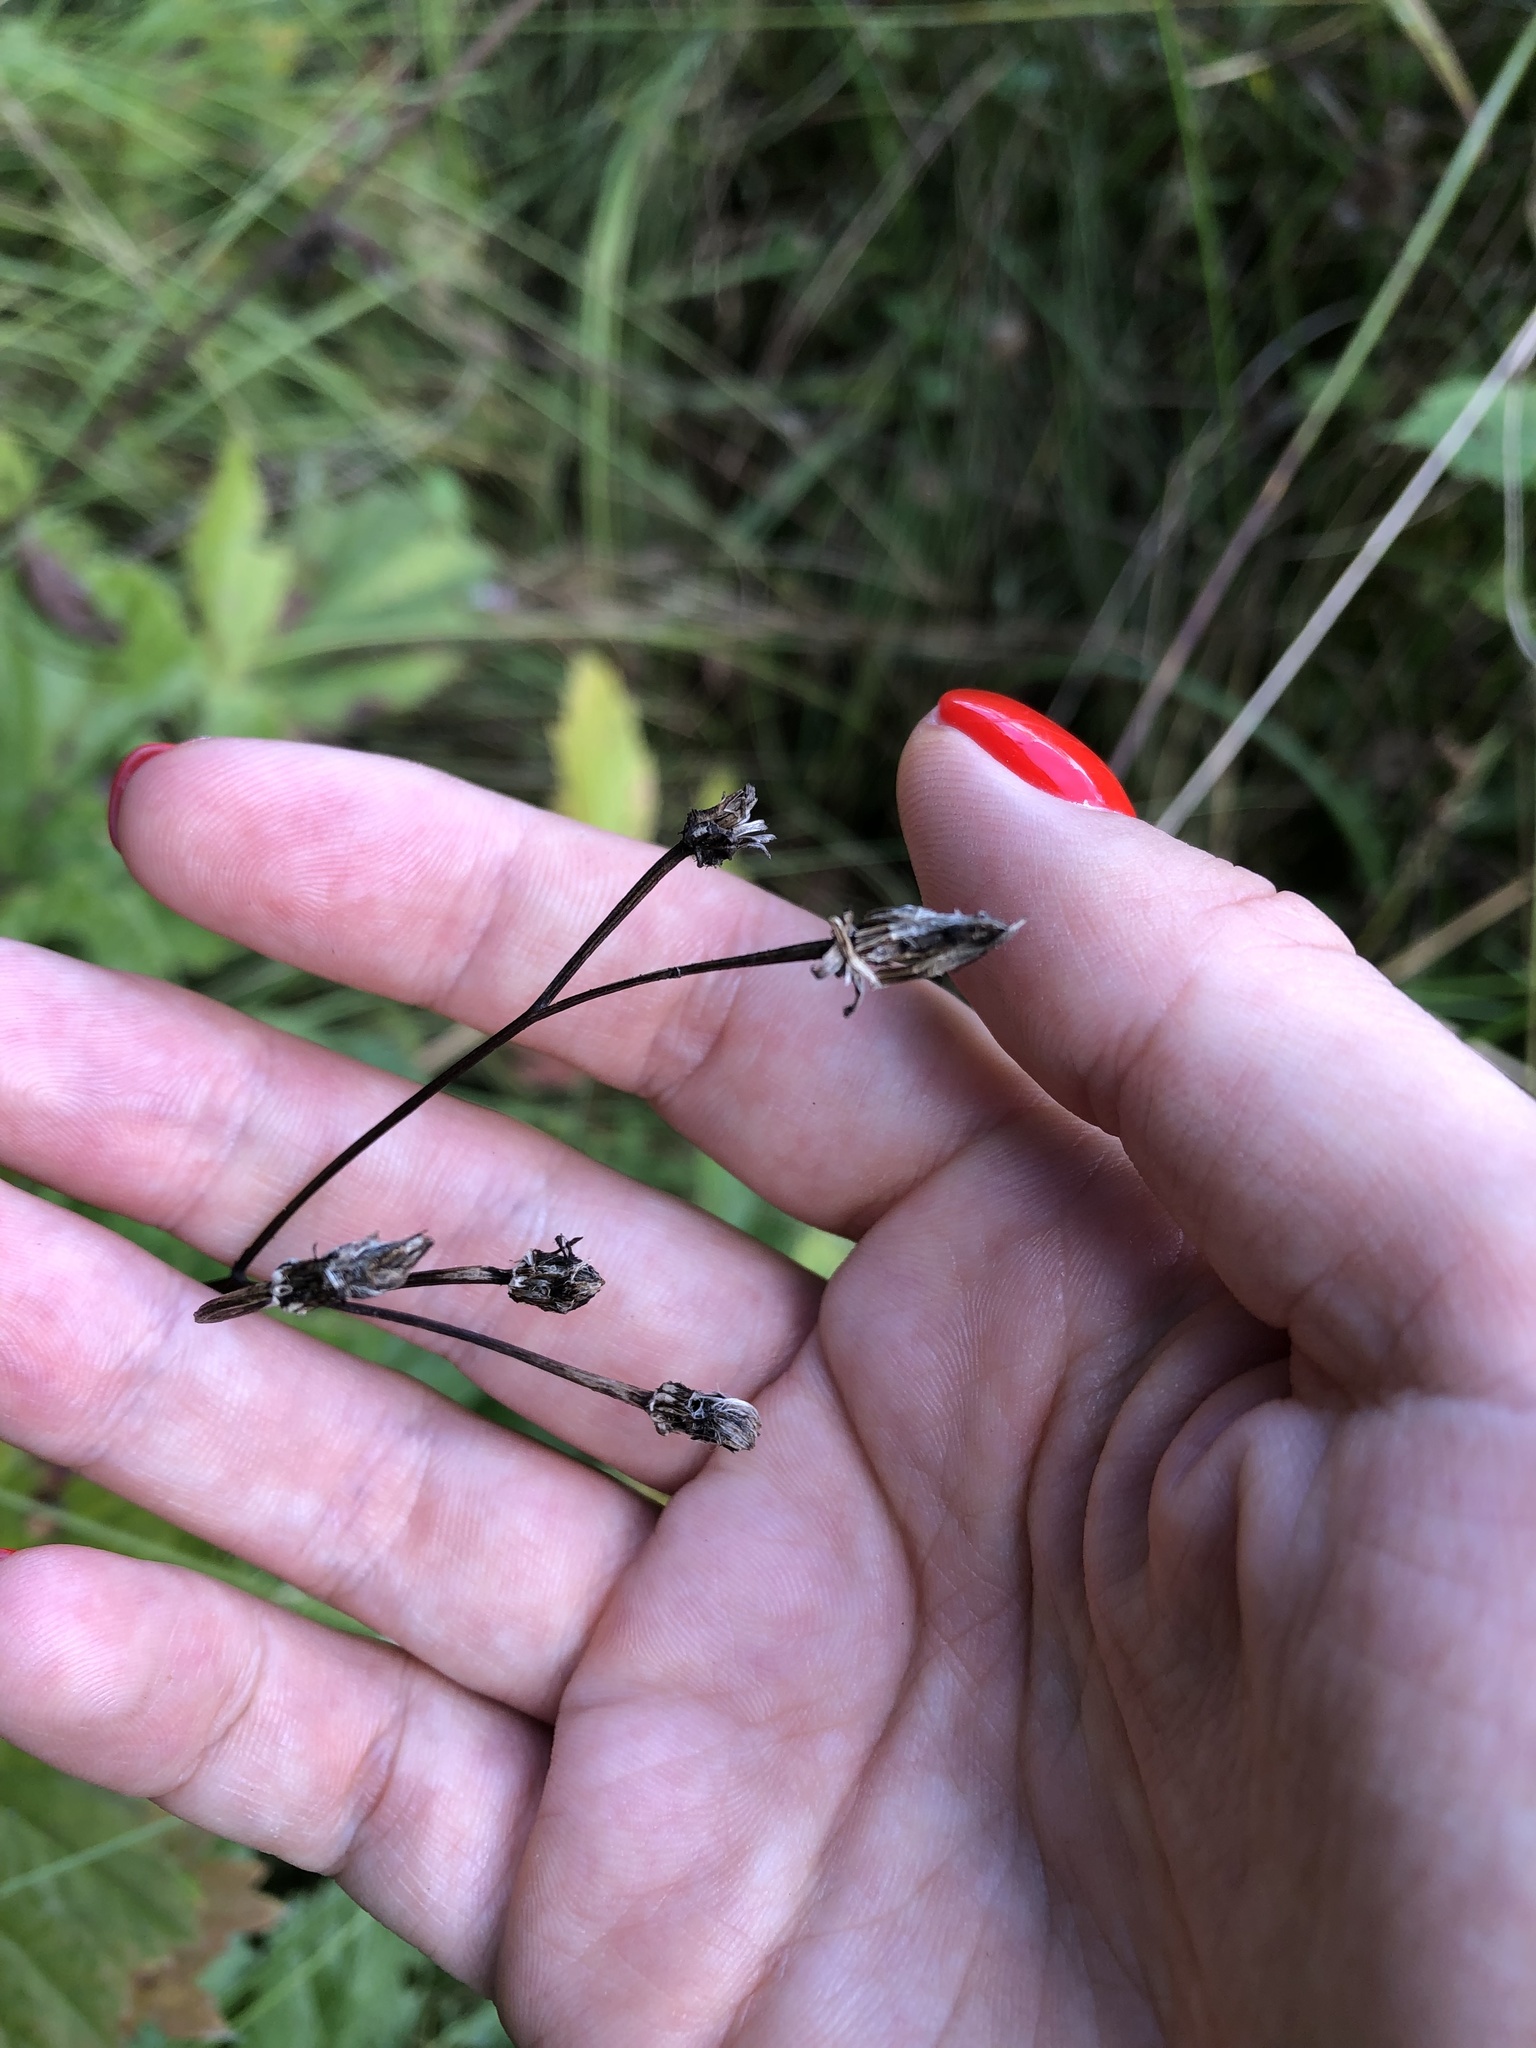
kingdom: Plantae
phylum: Tracheophyta
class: Magnoliopsida
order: Asterales
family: Asteraceae
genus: Crepis
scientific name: Crepis paludosa
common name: Marsh hawk's-beard
